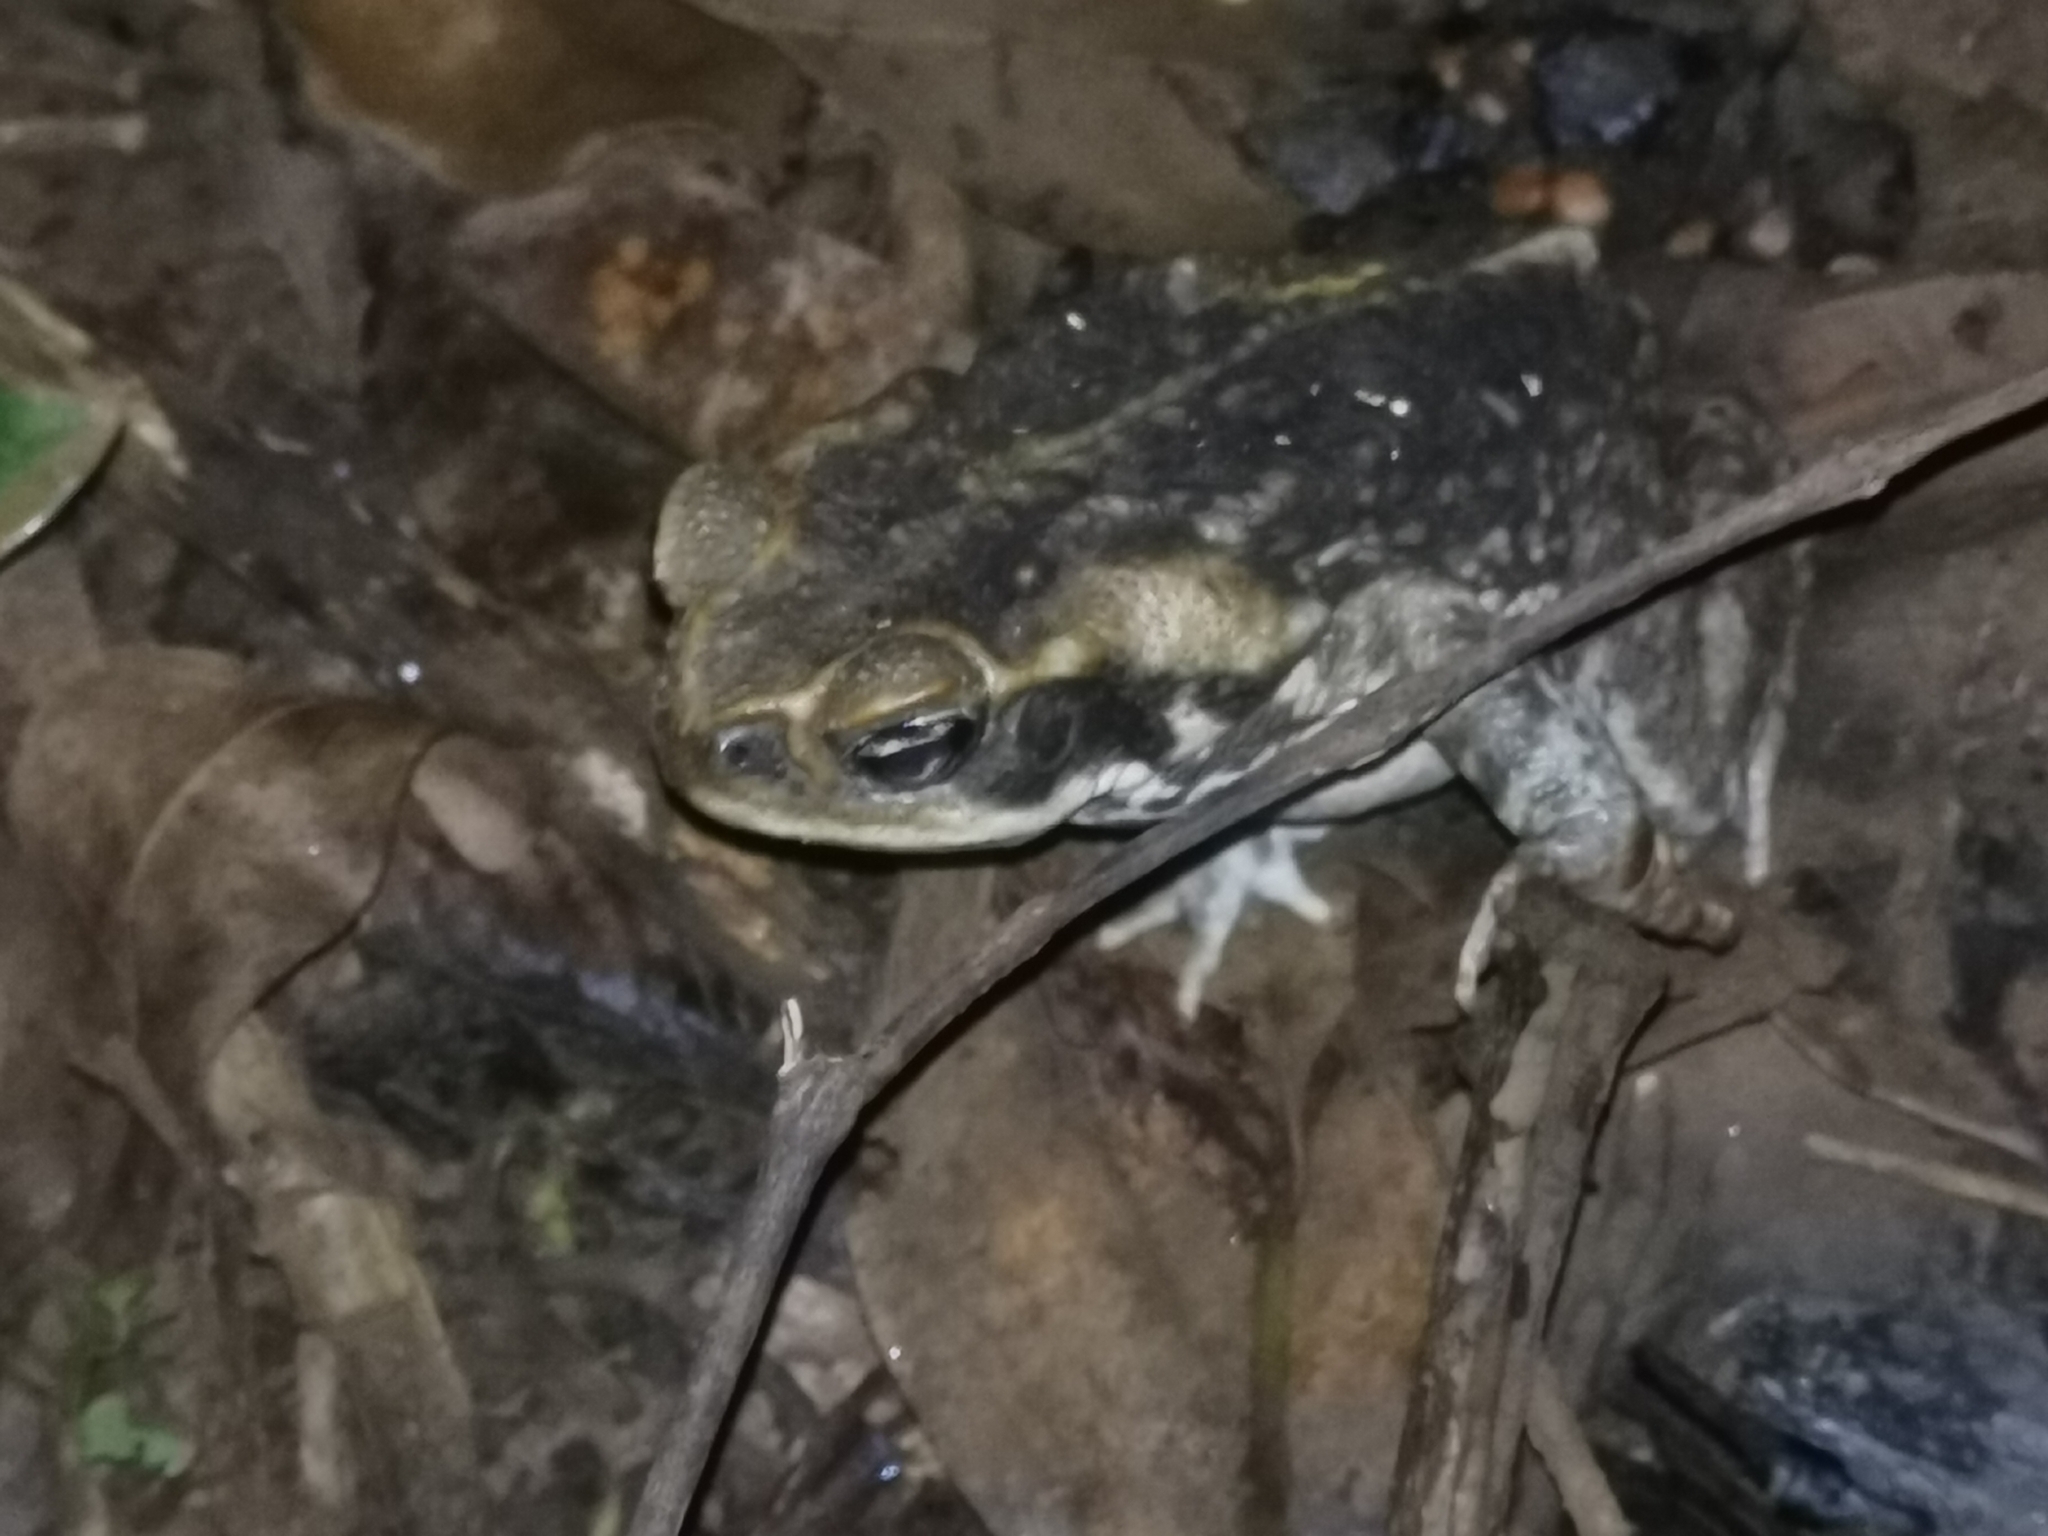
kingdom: Animalia
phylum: Chordata
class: Amphibia
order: Anura
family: Bufonidae
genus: Rhinella
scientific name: Rhinella marina
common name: Cane toad
